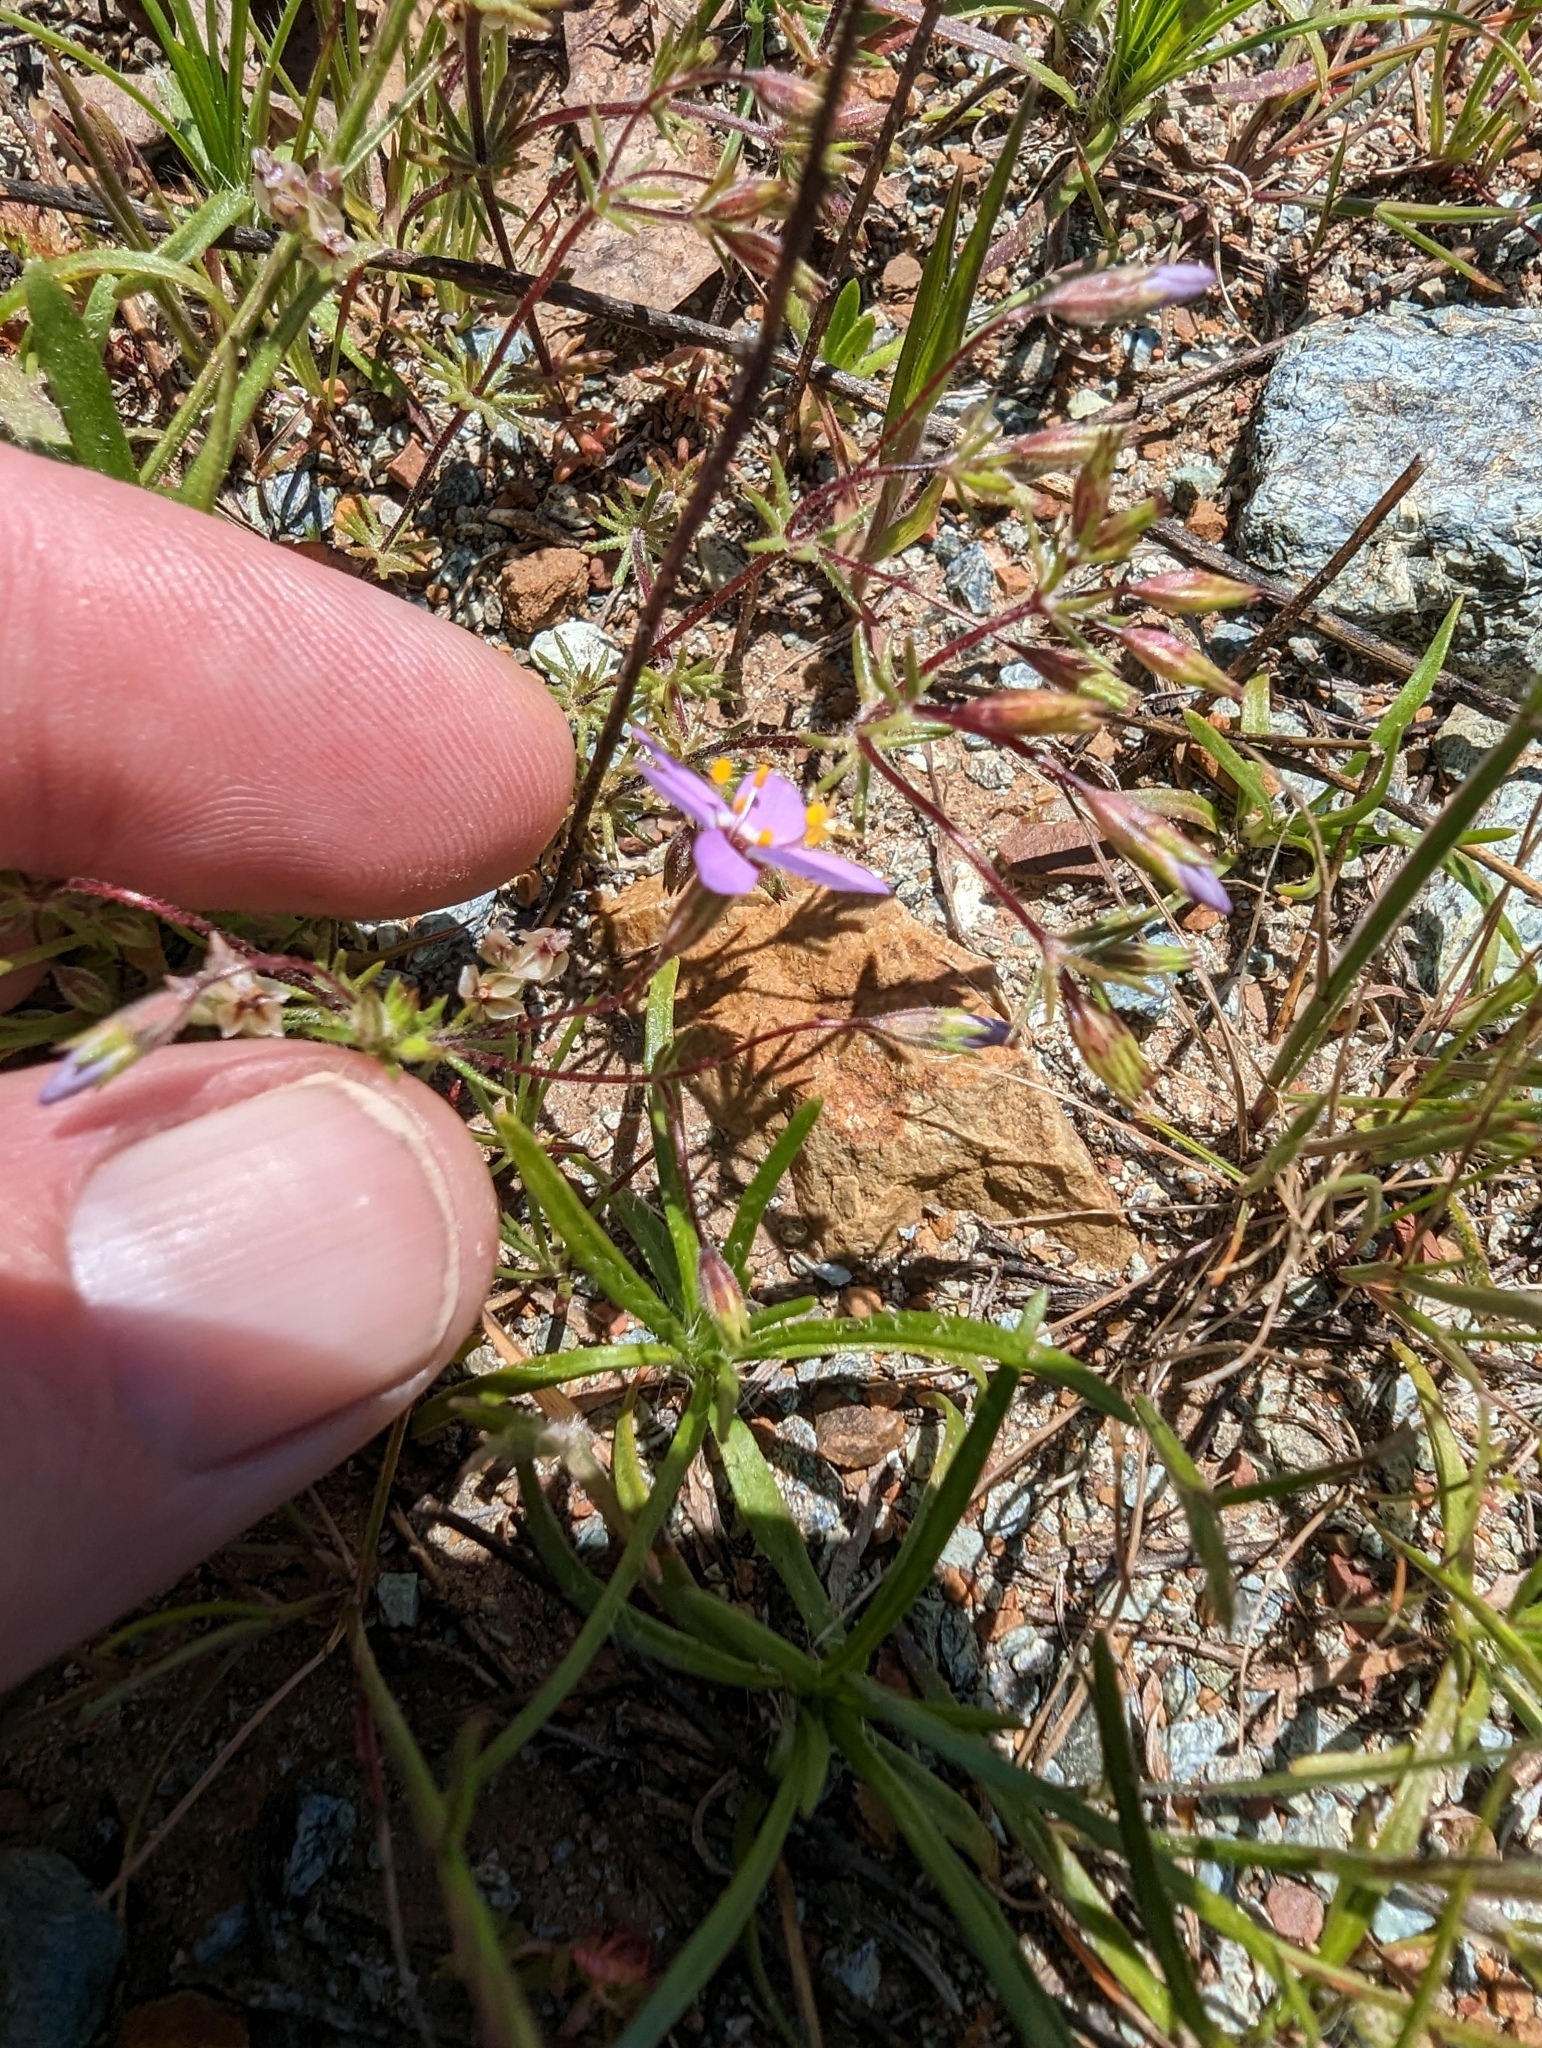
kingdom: Plantae
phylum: Tracheophyta
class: Magnoliopsida
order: Ericales
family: Polemoniaceae
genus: Leptosiphon
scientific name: Leptosiphon ambiguus
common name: Serpentine linanthus
